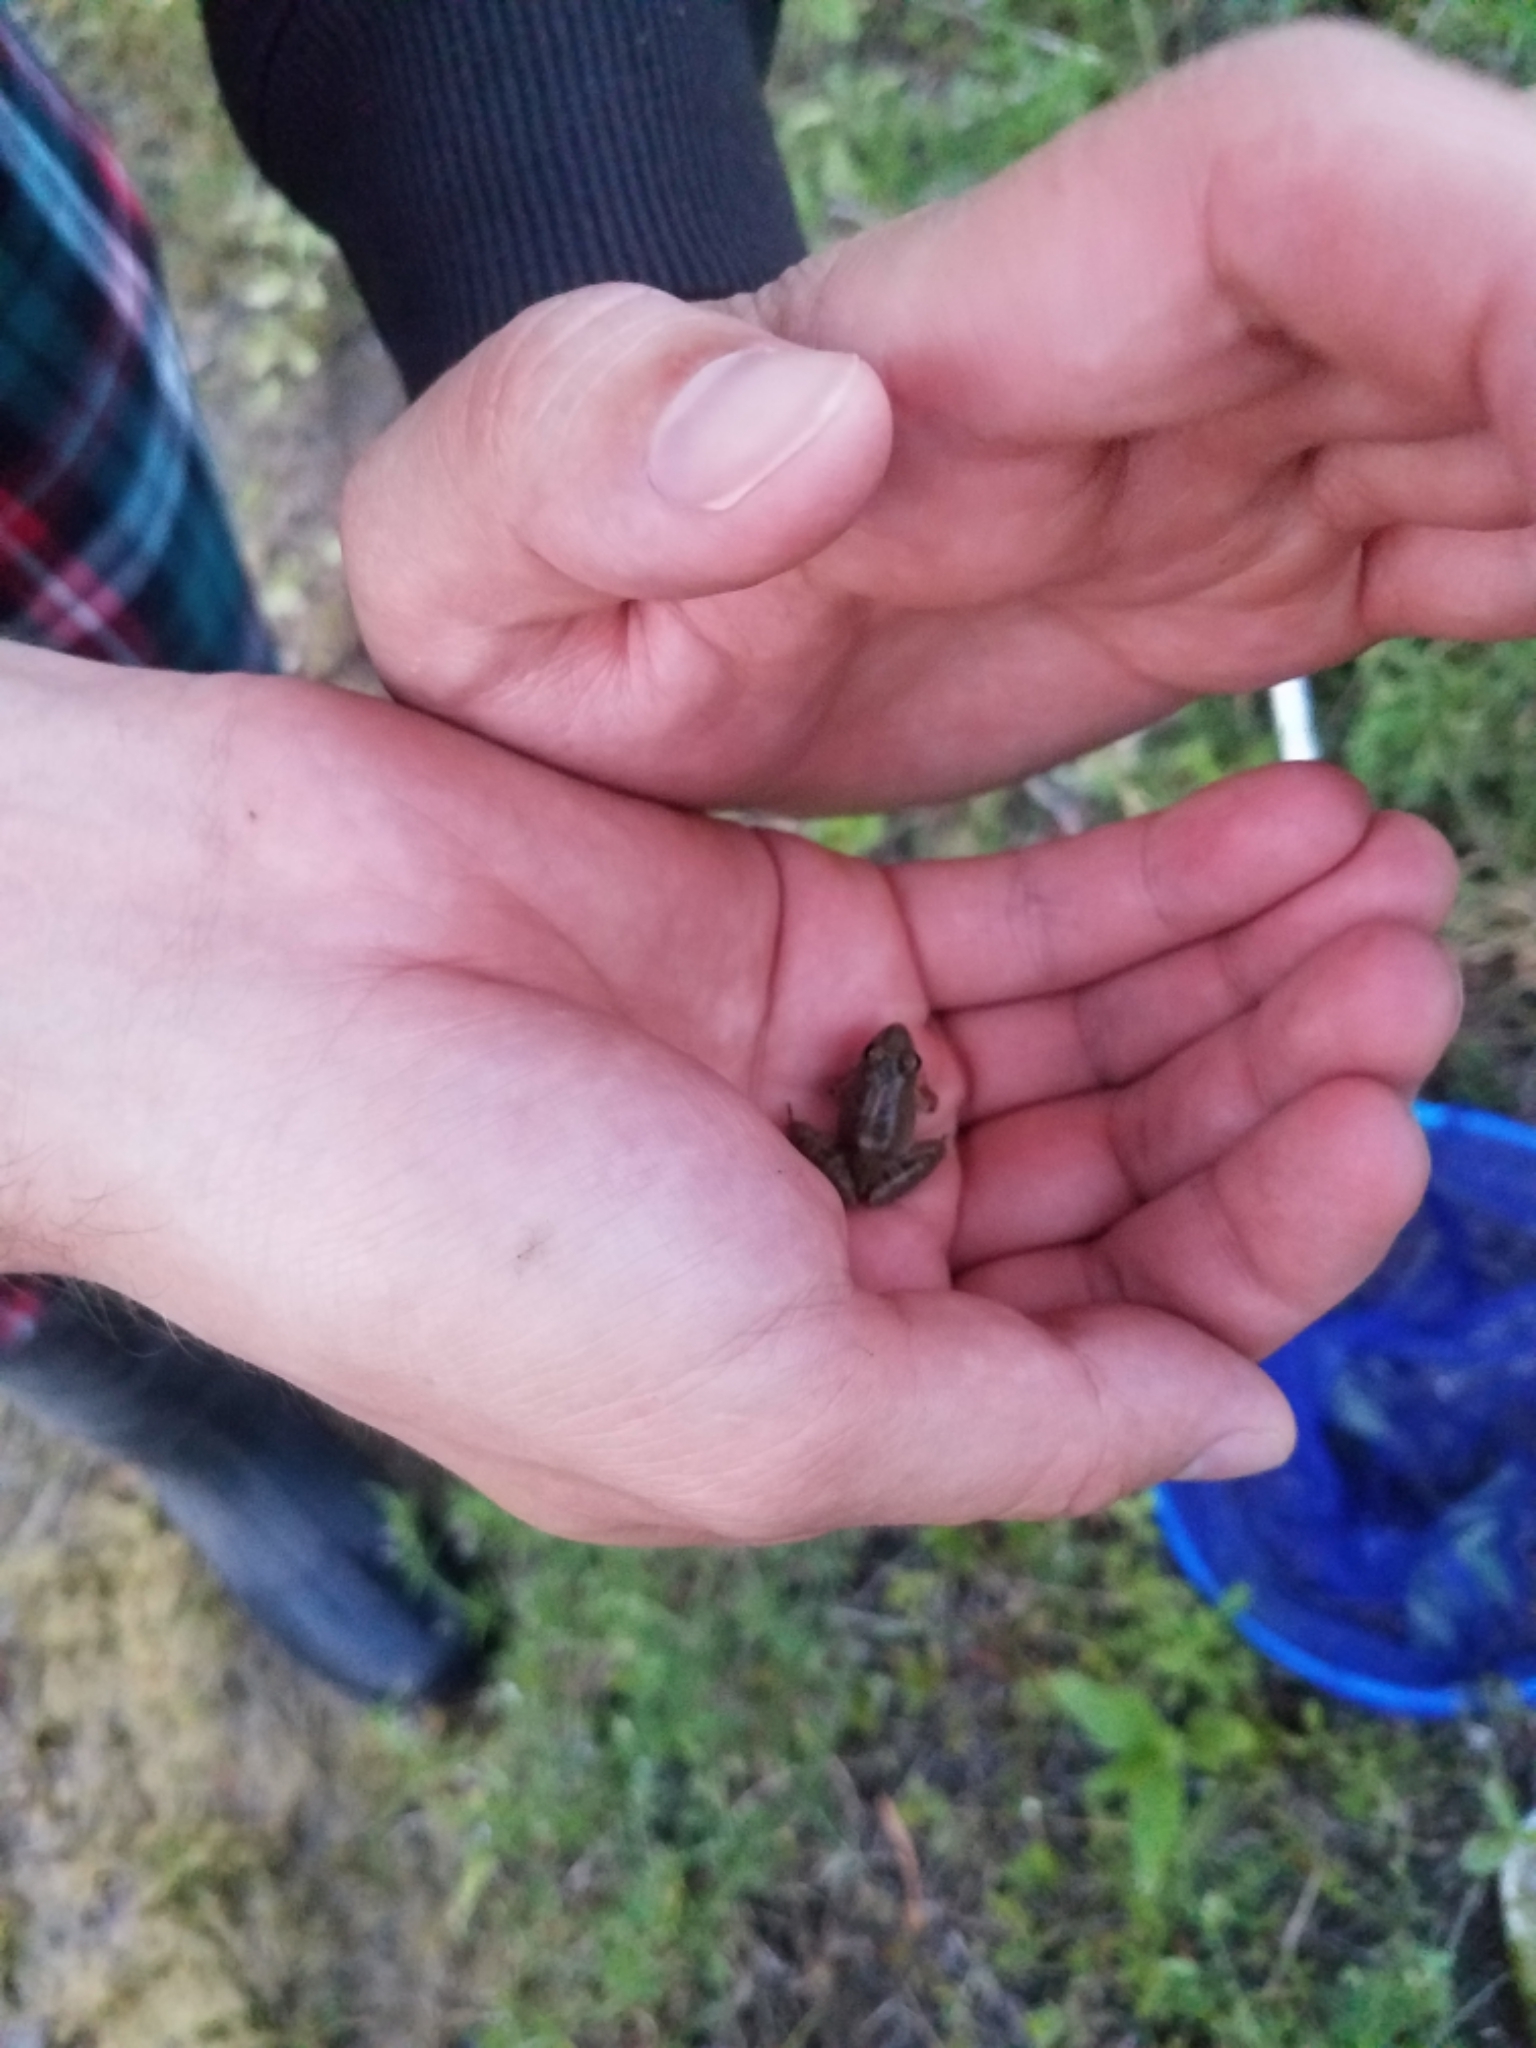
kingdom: Animalia
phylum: Chordata
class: Amphibia
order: Anura
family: Hylidae
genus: Acris
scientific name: Acris blanchardi
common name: Blanchard's cricket frog
